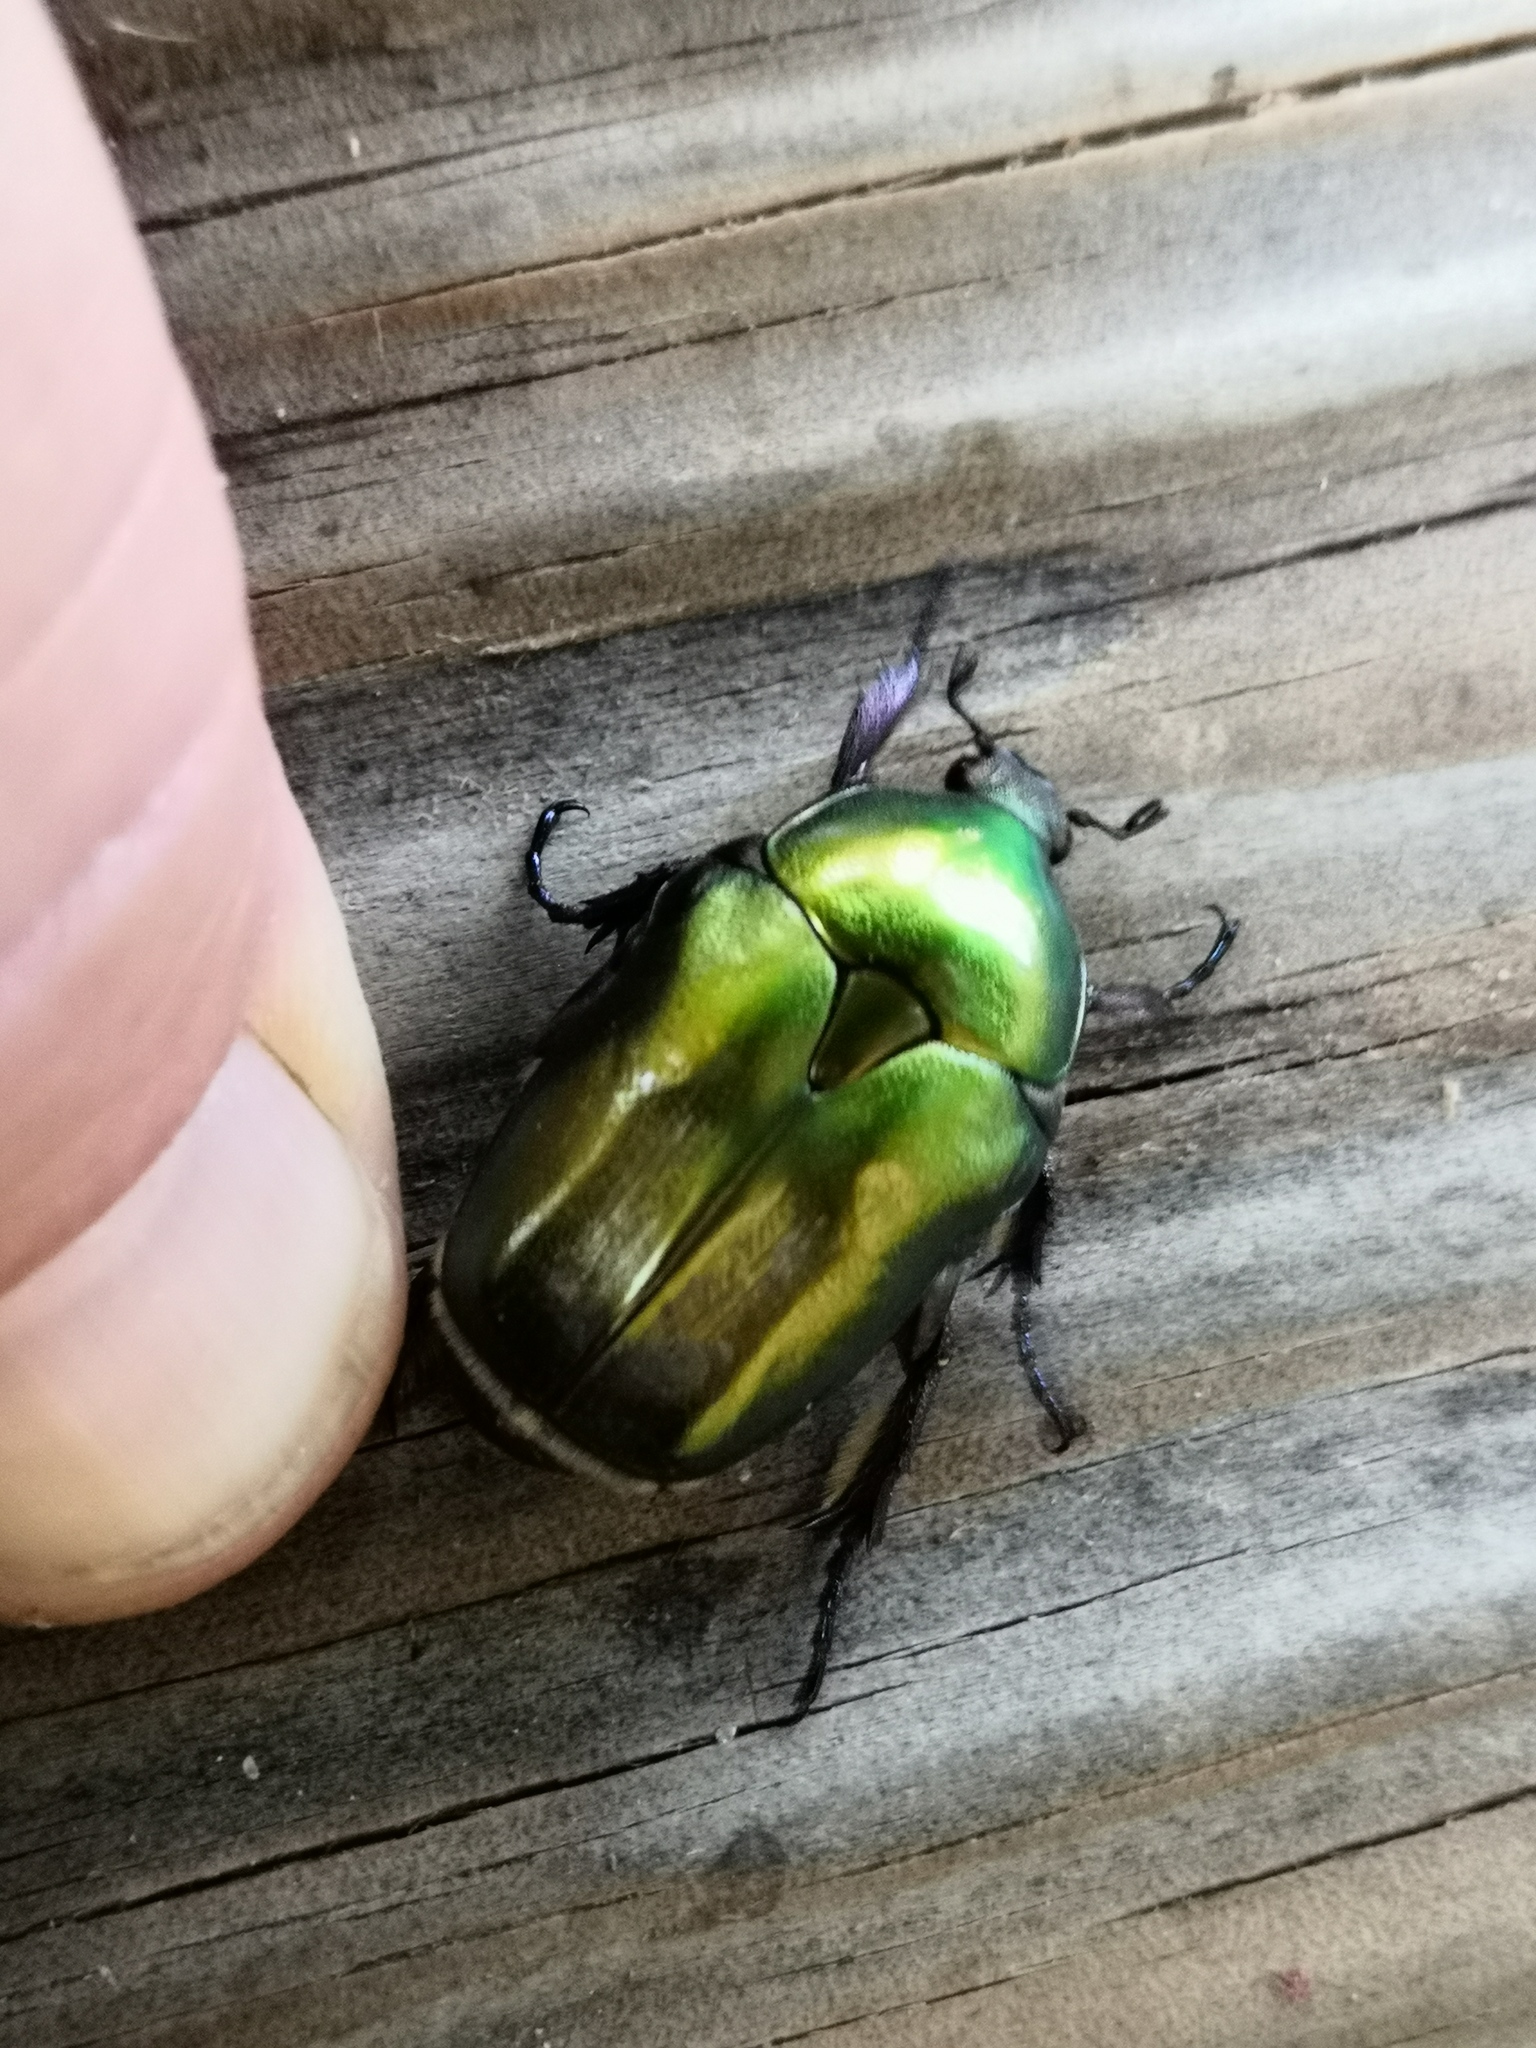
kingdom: Animalia
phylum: Arthropoda
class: Insecta
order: Coleoptera
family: Scarabaeidae
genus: Protaetia
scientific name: Protaetia cuprea
